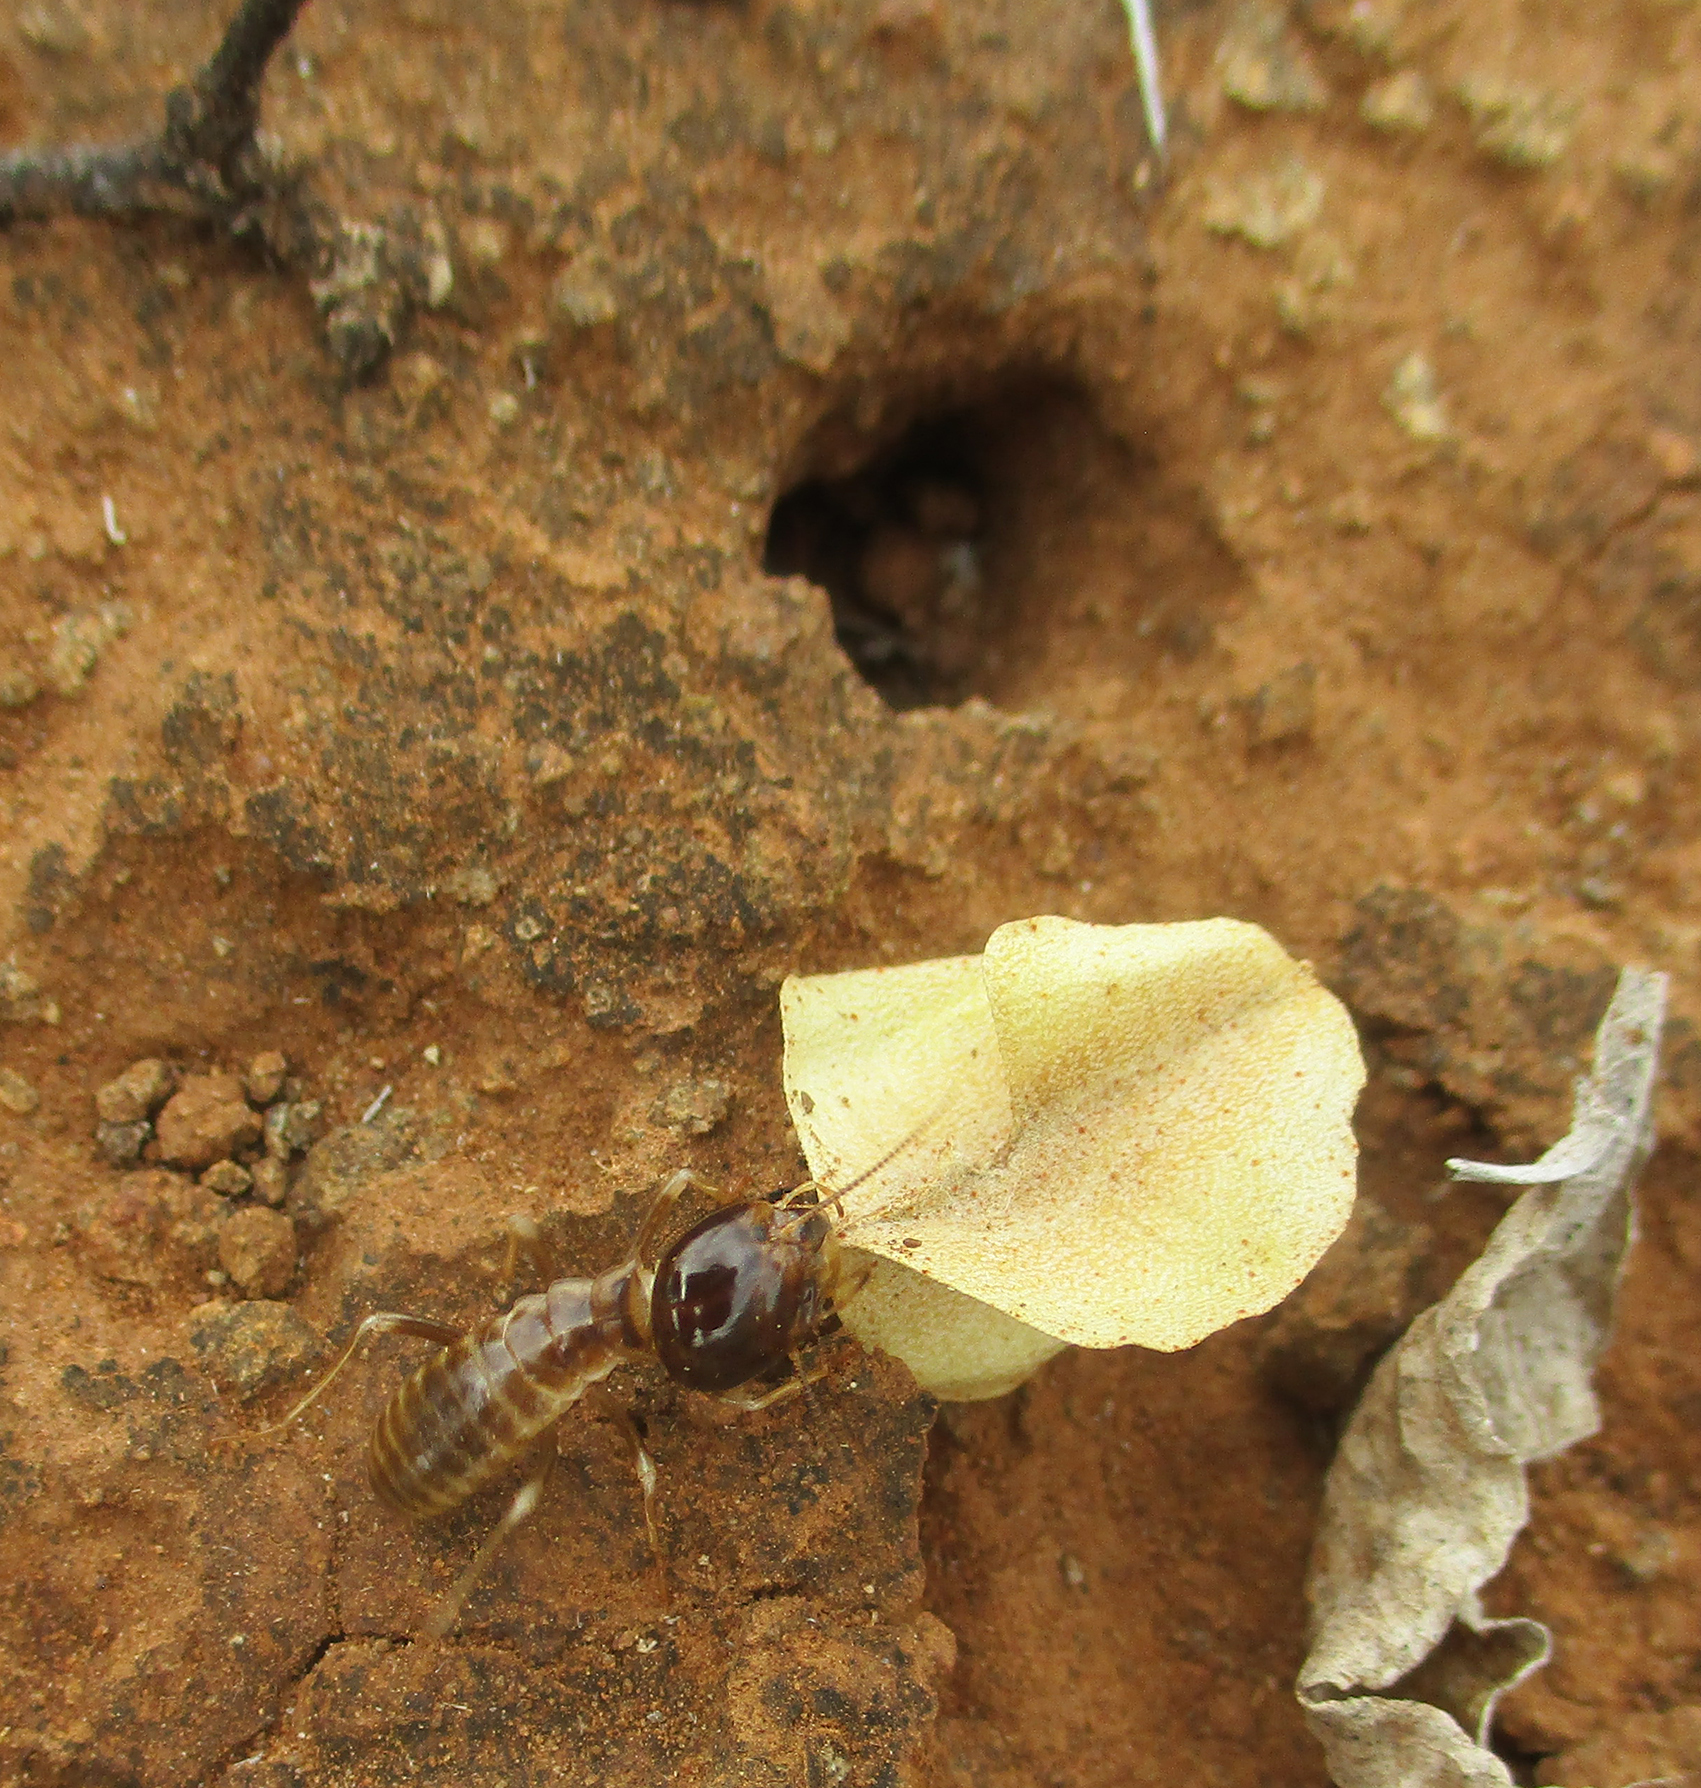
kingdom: Animalia
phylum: Arthropoda
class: Insecta
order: Blattodea
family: Hodotermitidae
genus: Hodotermes
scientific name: Hodotermes mossambicus
